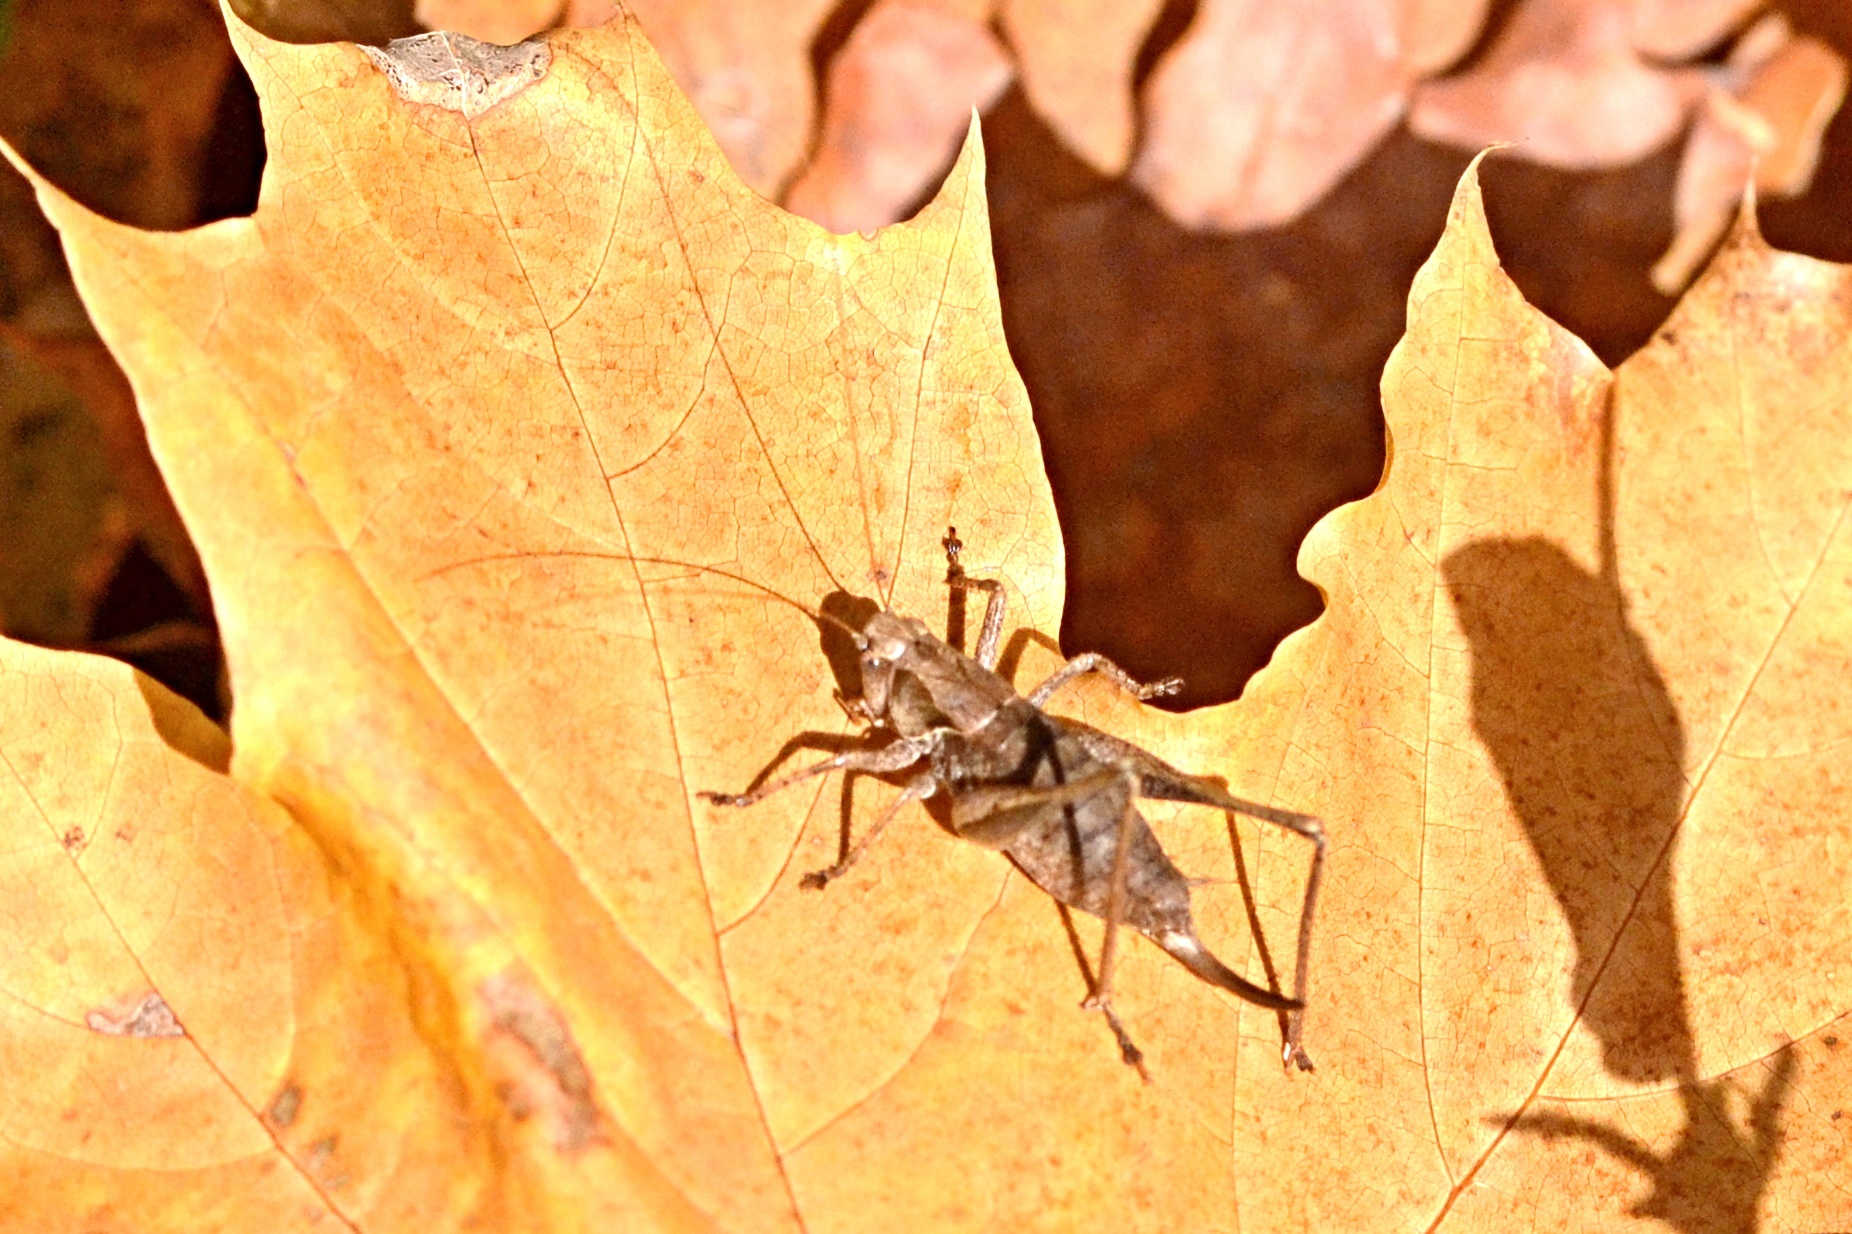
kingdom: Animalia
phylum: Arthropoda
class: Insecta
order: Orthoptera
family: Tettigoniidae
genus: Pholidoptera
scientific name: Pholidoptera griseoaptera
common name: Dark bush-cricket
